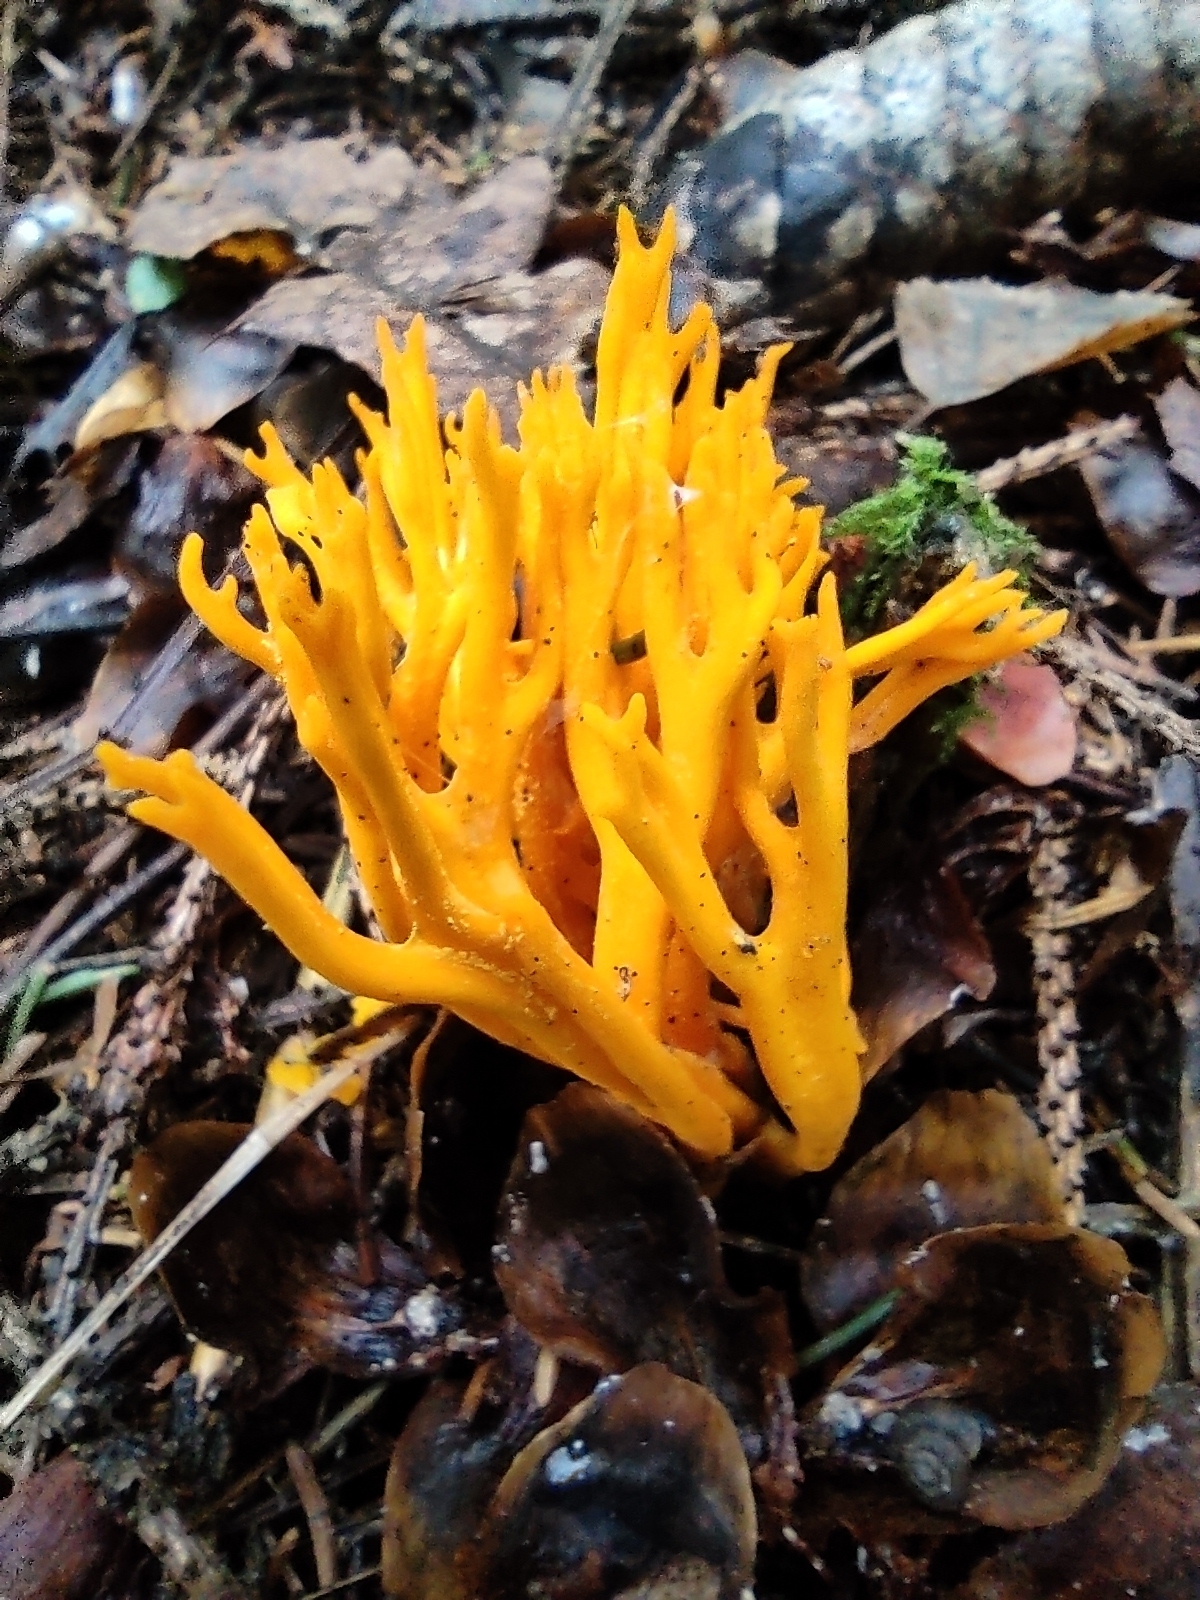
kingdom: Fungi
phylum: Basidiomycota
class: Dacrymycetes
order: Dacrymycetales
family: Dacrymycetaceae
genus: Calocera
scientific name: Calocera viscosa
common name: Yellow stagshorn
